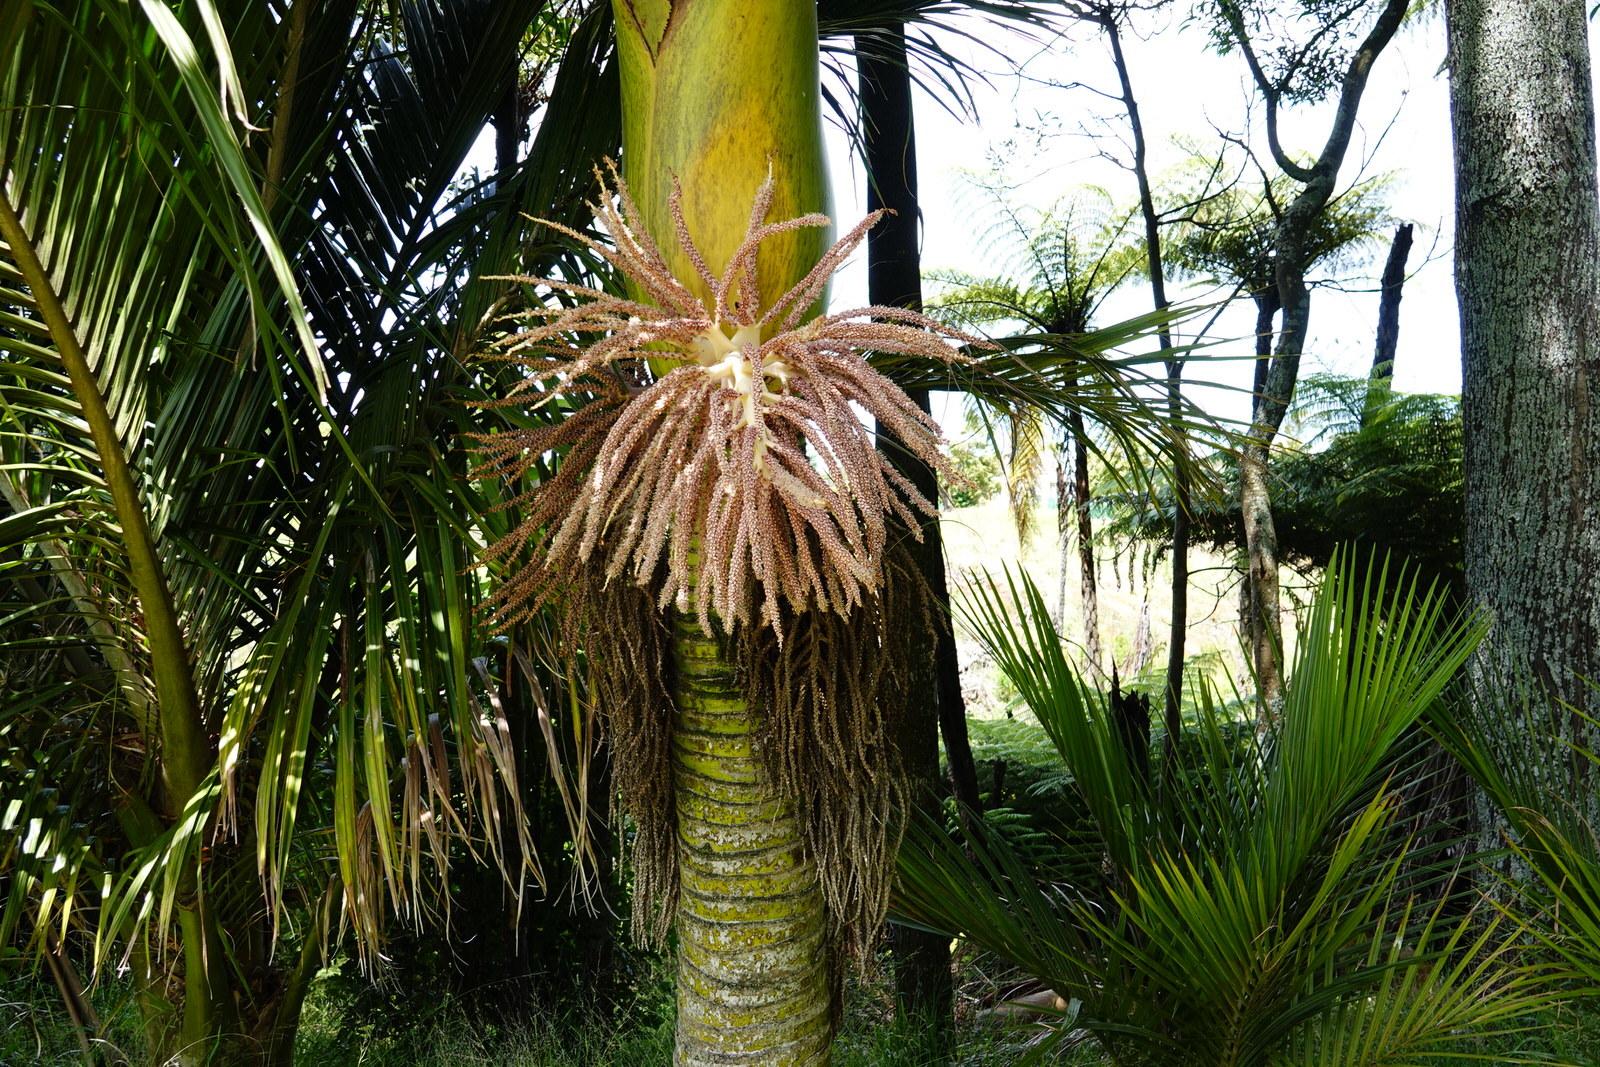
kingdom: Plantae
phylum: Tracheophyta
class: Liliopsida
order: Arecales
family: Arecaceae
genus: Rhopalostylis
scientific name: Rhopalostylis sapida
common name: Feather-duster palm
